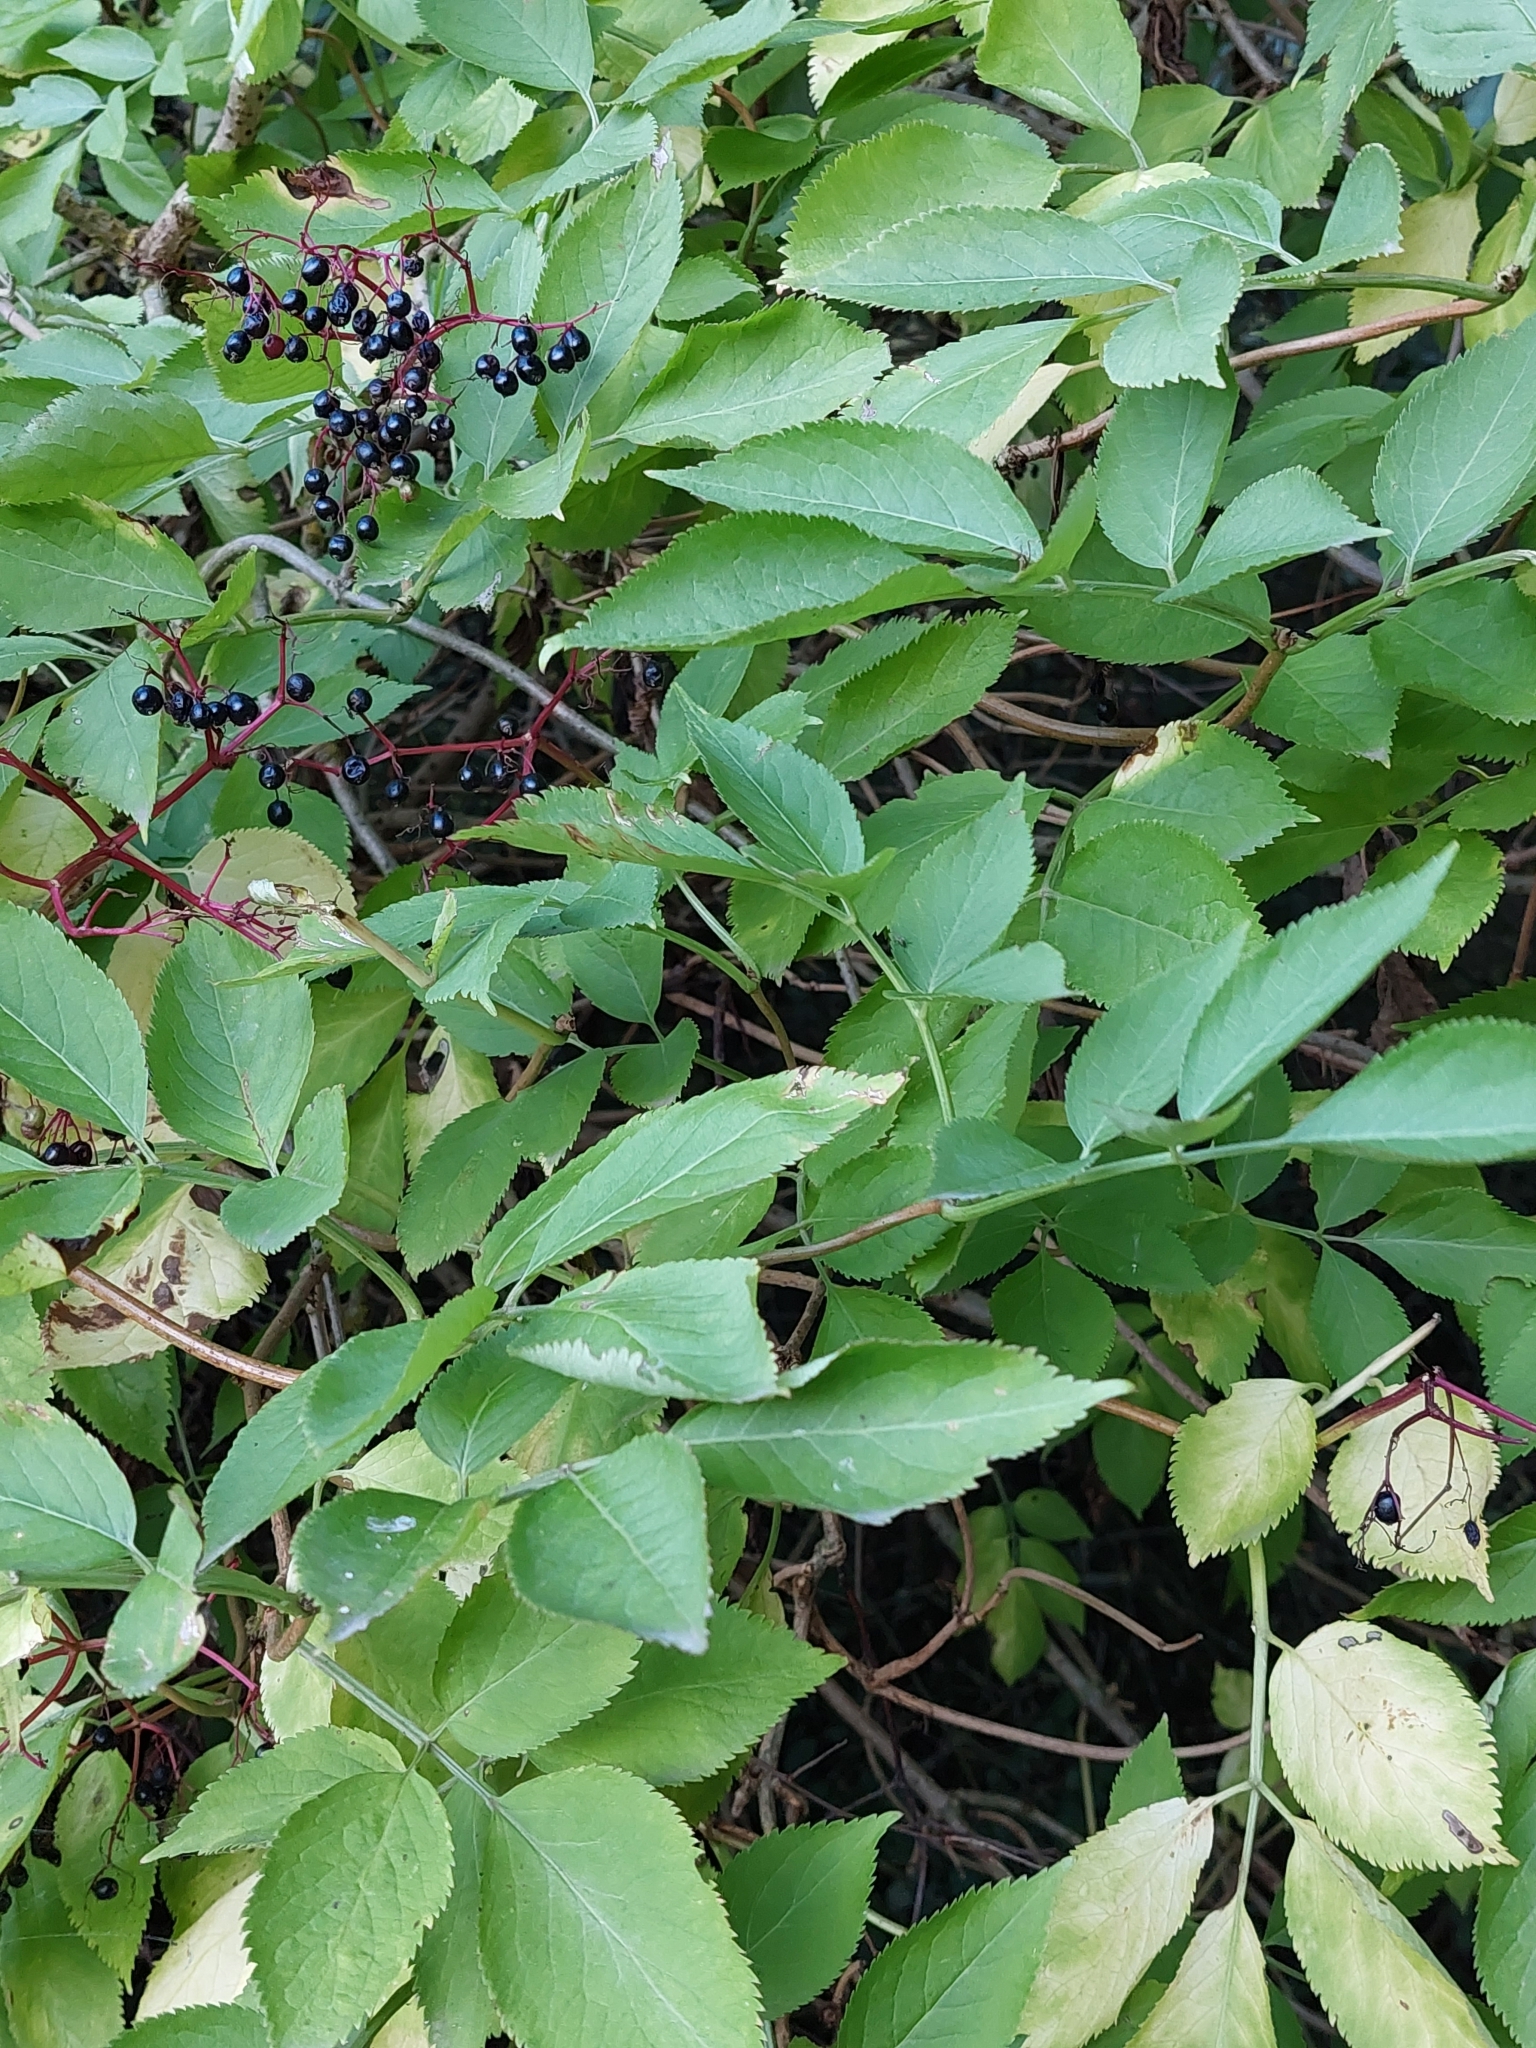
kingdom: Plantae
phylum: Tracheophyta
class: Magnoliopsida
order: Dipsacales
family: Viburnaceae
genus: Sambucus
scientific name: Sambucus nigra
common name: Elder
